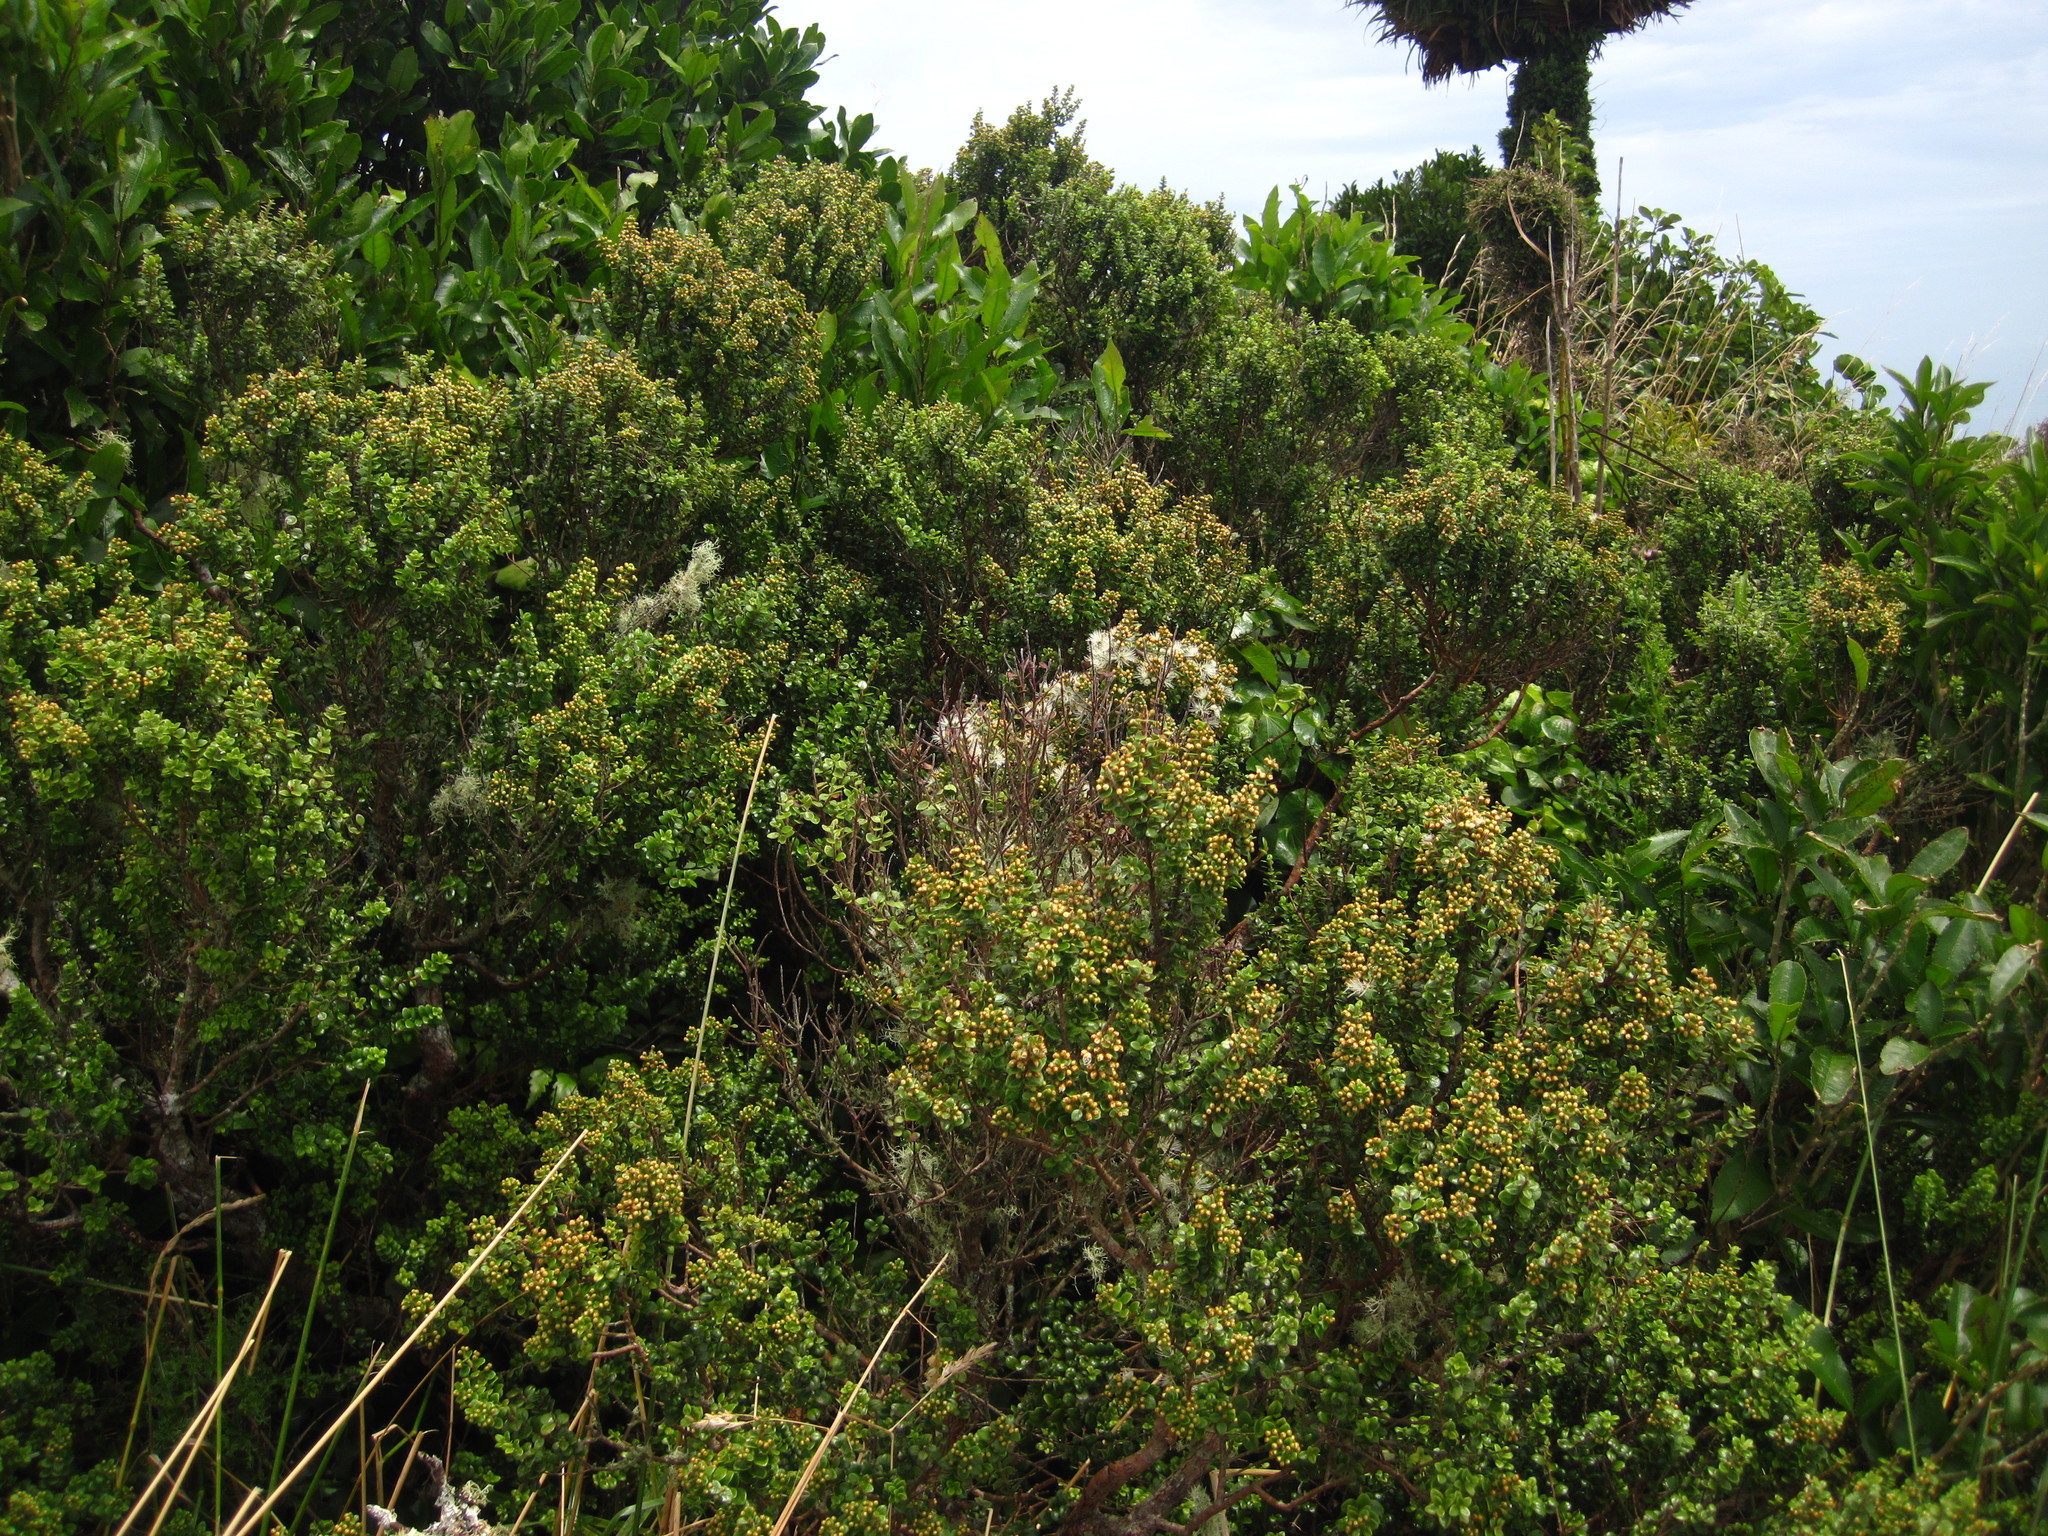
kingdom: Plantae
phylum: Tracheophyta
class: Magnoliopsida
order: Myrtales
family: Myrtaceae
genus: Metrosideros
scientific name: Metrosideros perforata
